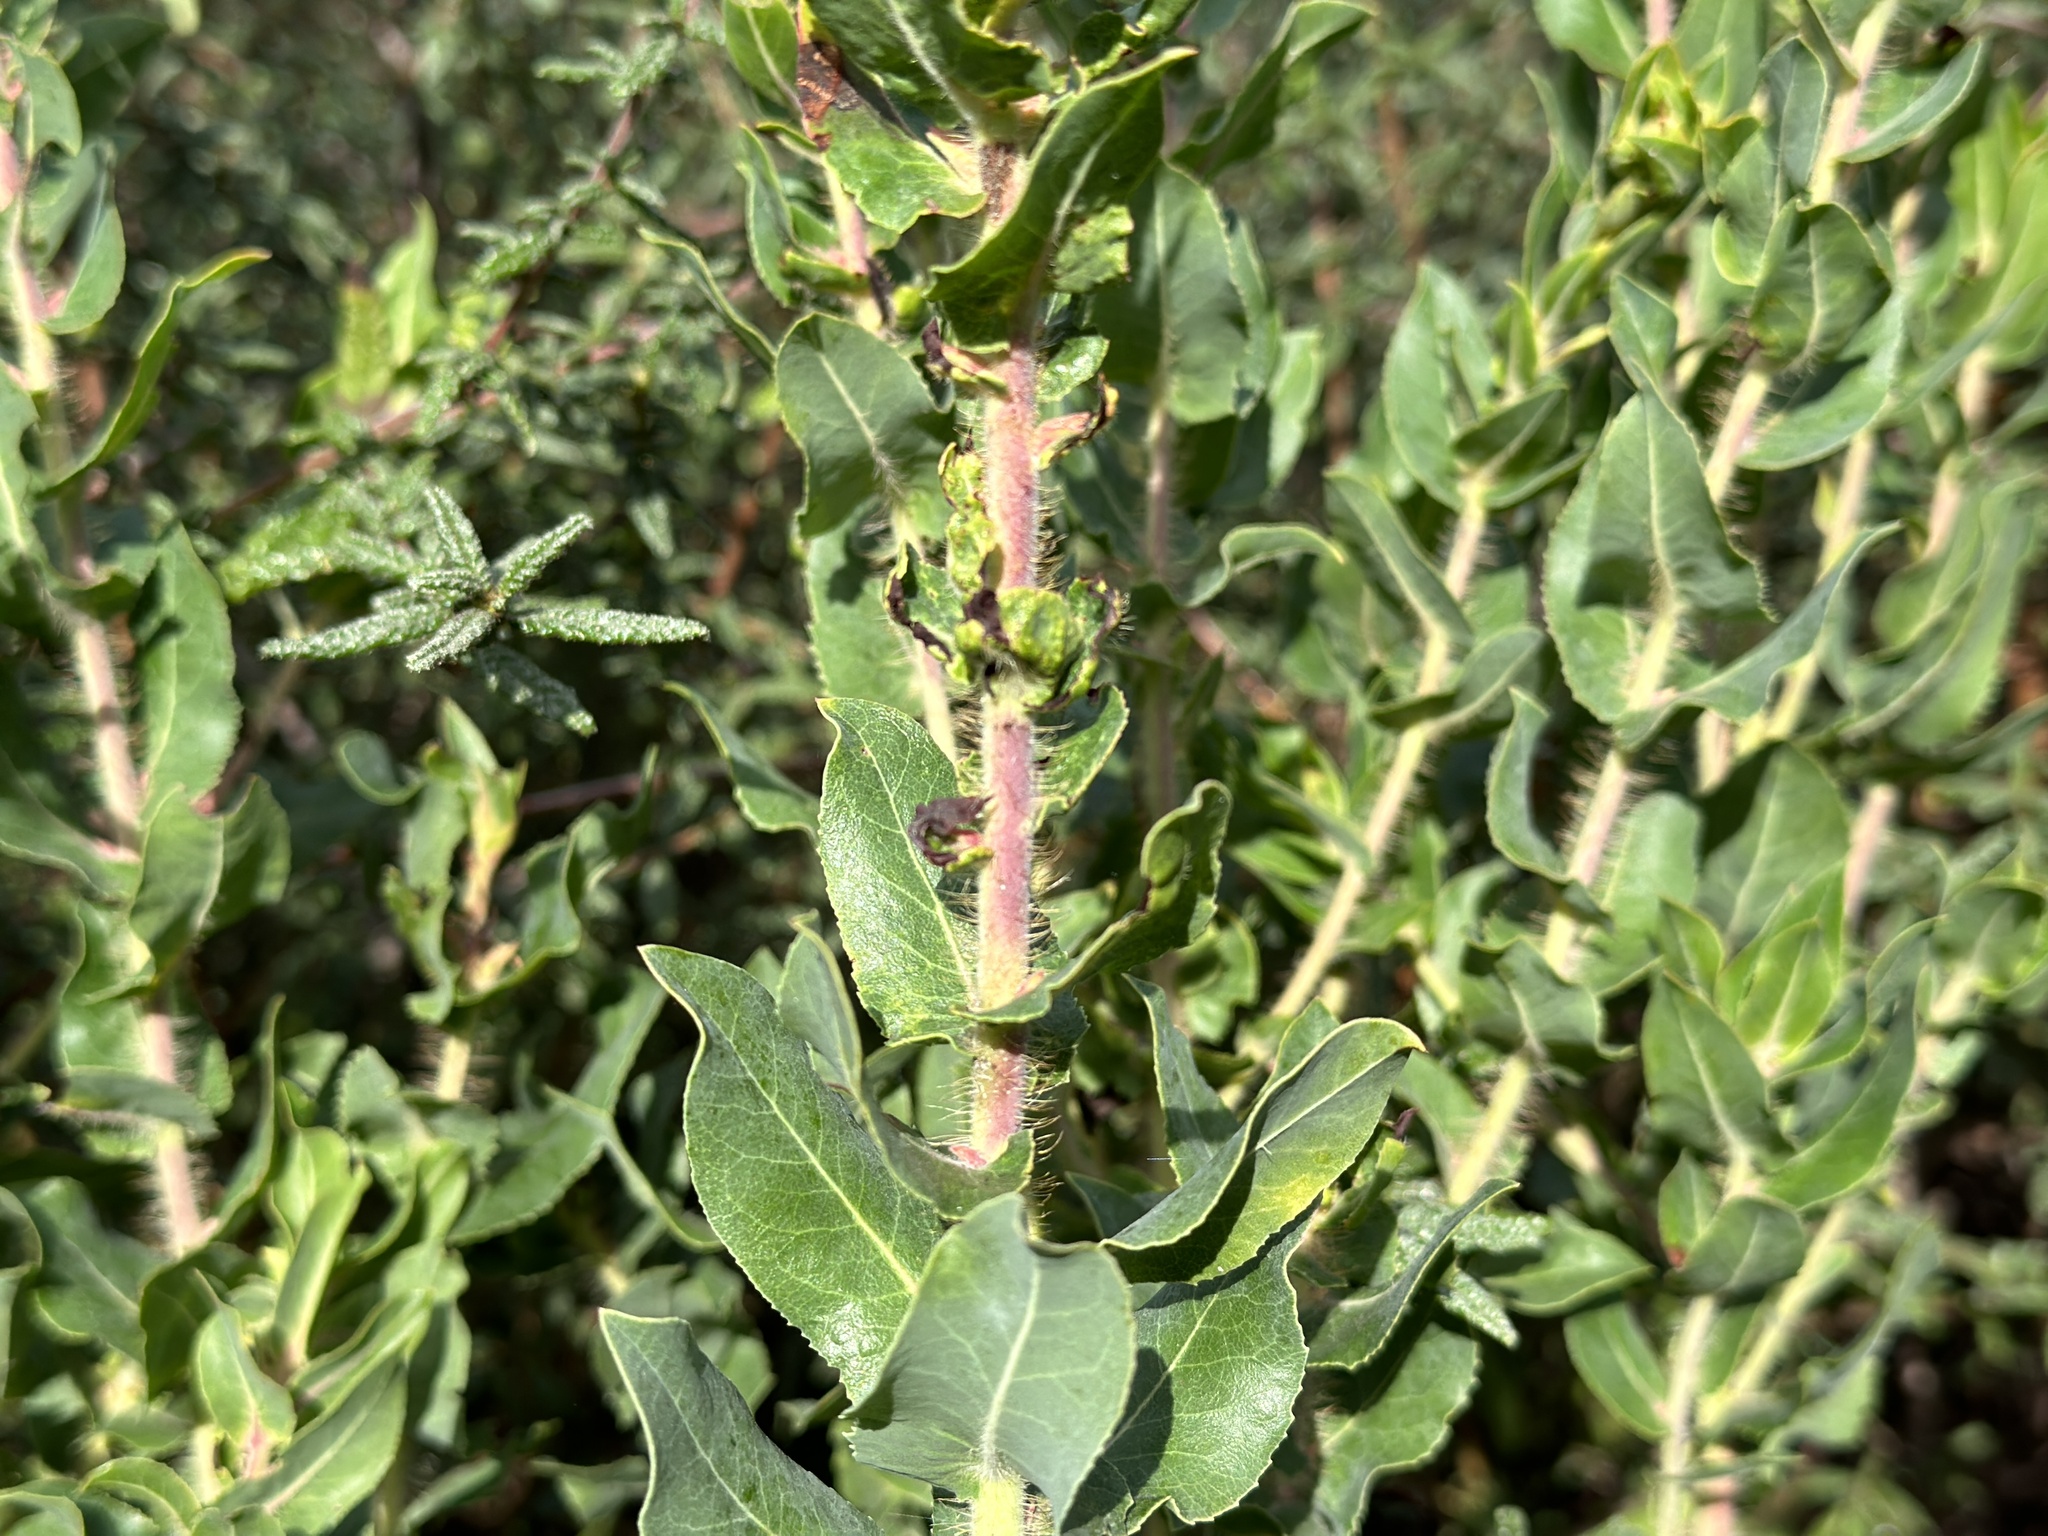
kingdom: Plantae
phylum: Tracheophyta
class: Magnoliopsida
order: Ericales
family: Ericaceae
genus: Arctostaphylos
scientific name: Arctostaphylos andersonii
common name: Santa cruz manzanita
